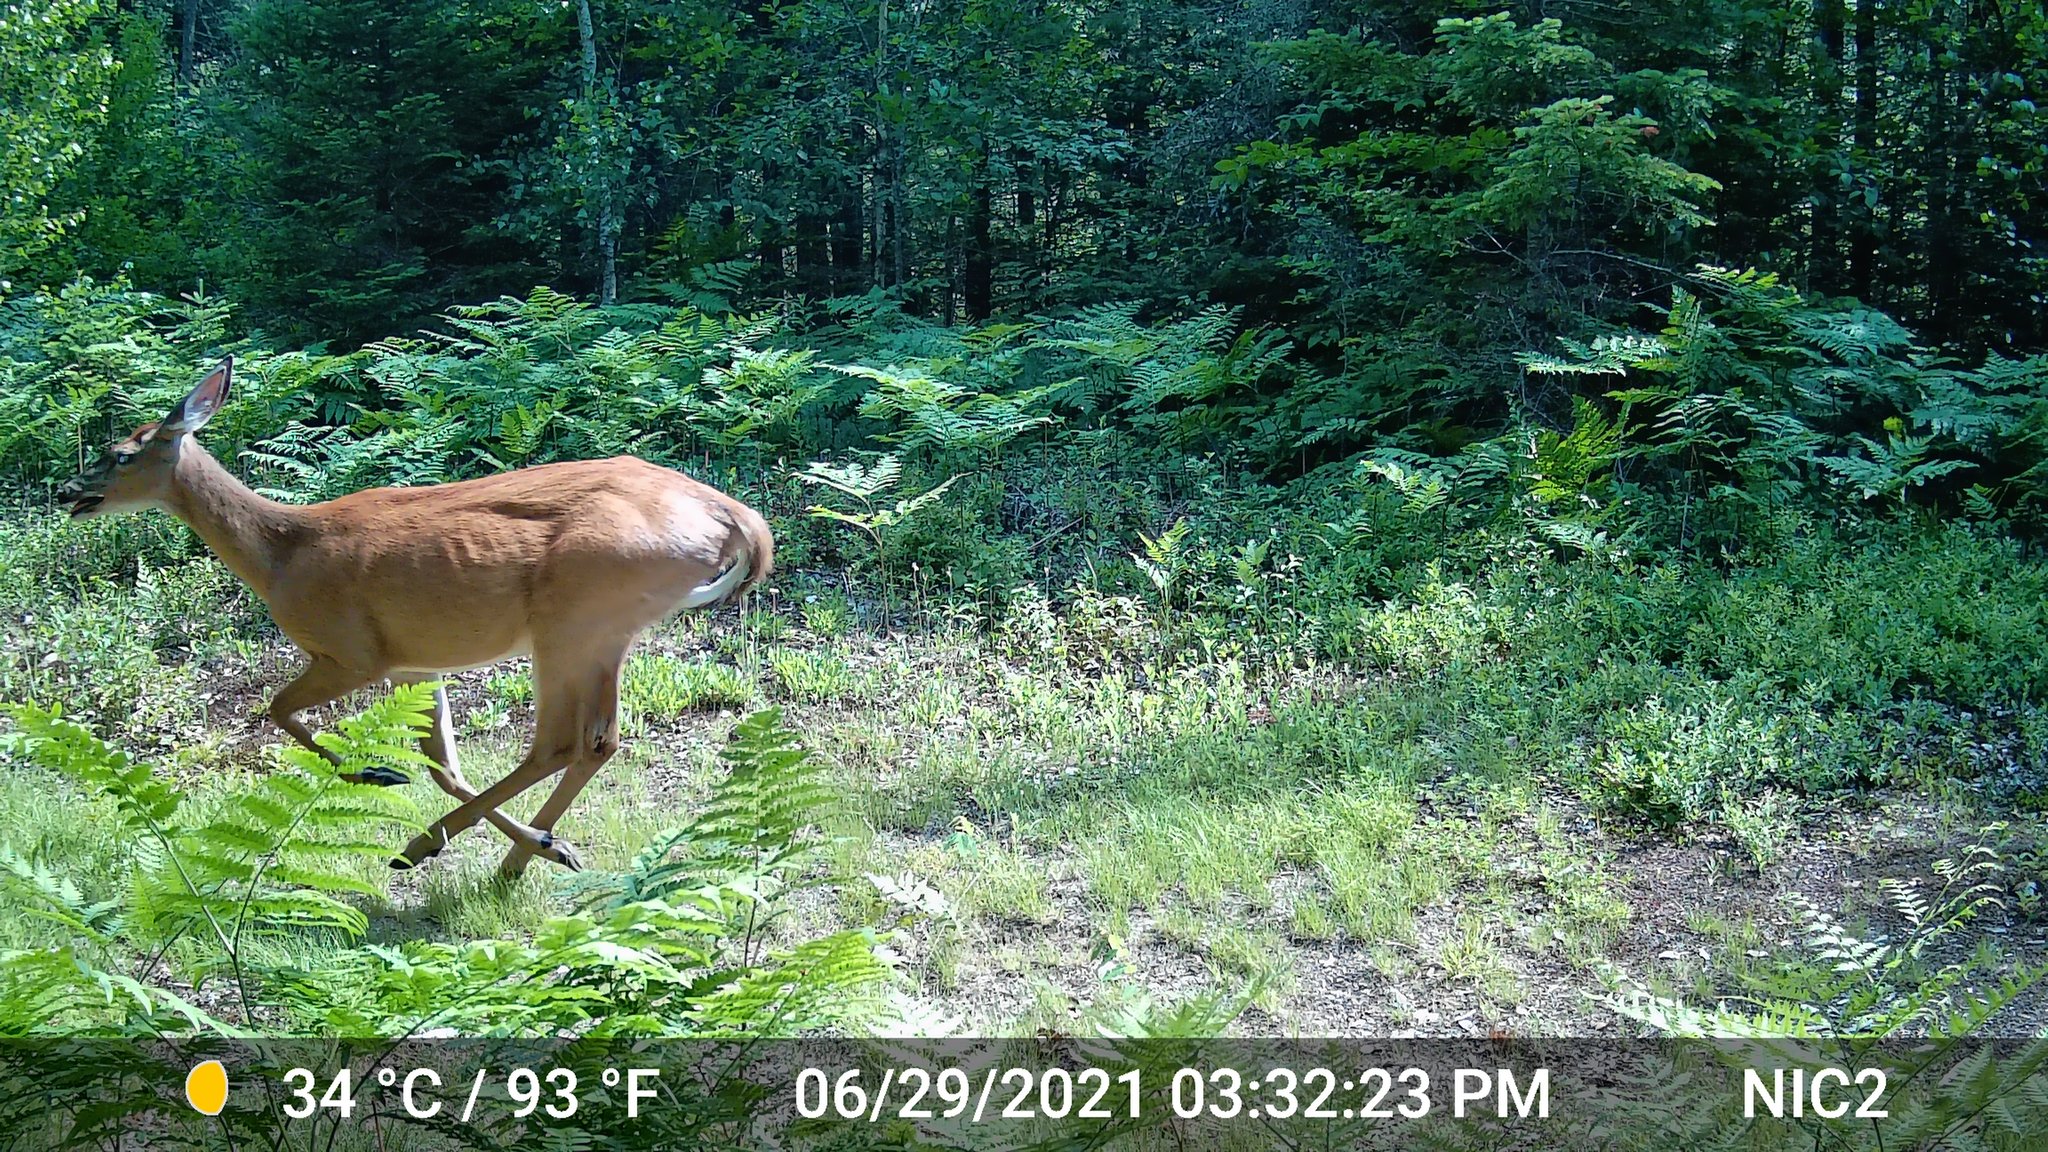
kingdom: Animalia
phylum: Chordata
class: Mammalia
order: Artiodactyla
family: Cervidae
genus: Odocoileus
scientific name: Odocoileus virginianus
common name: White-tailed deer
